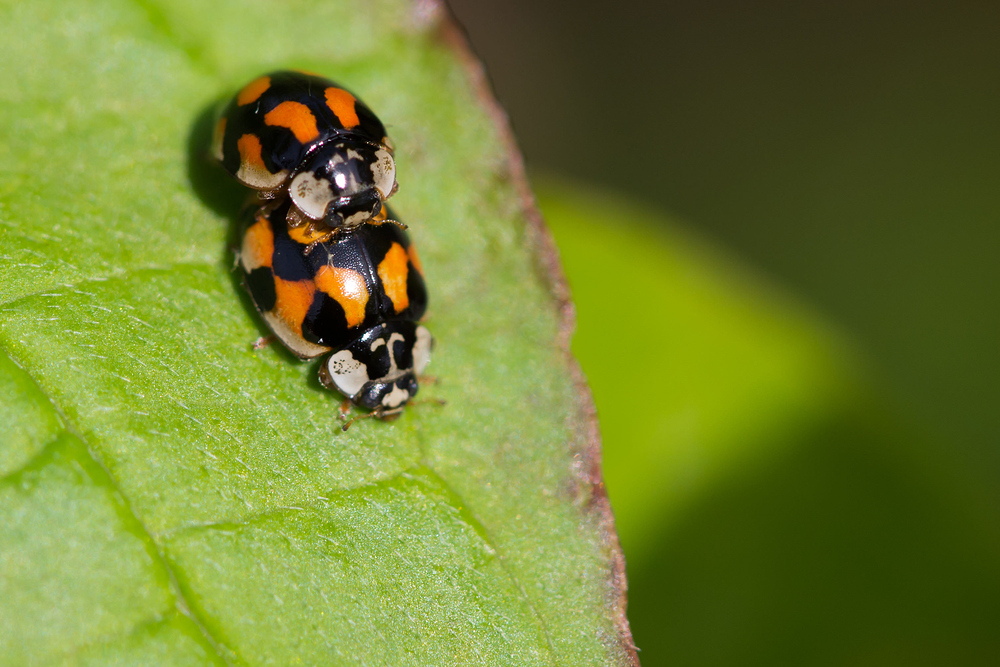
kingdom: Animalia
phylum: Arthropoda
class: Insecta
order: Coleoptera
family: Coccinellidae
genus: Adalia
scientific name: Adalia decempunctata
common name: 10-spot ladybird
